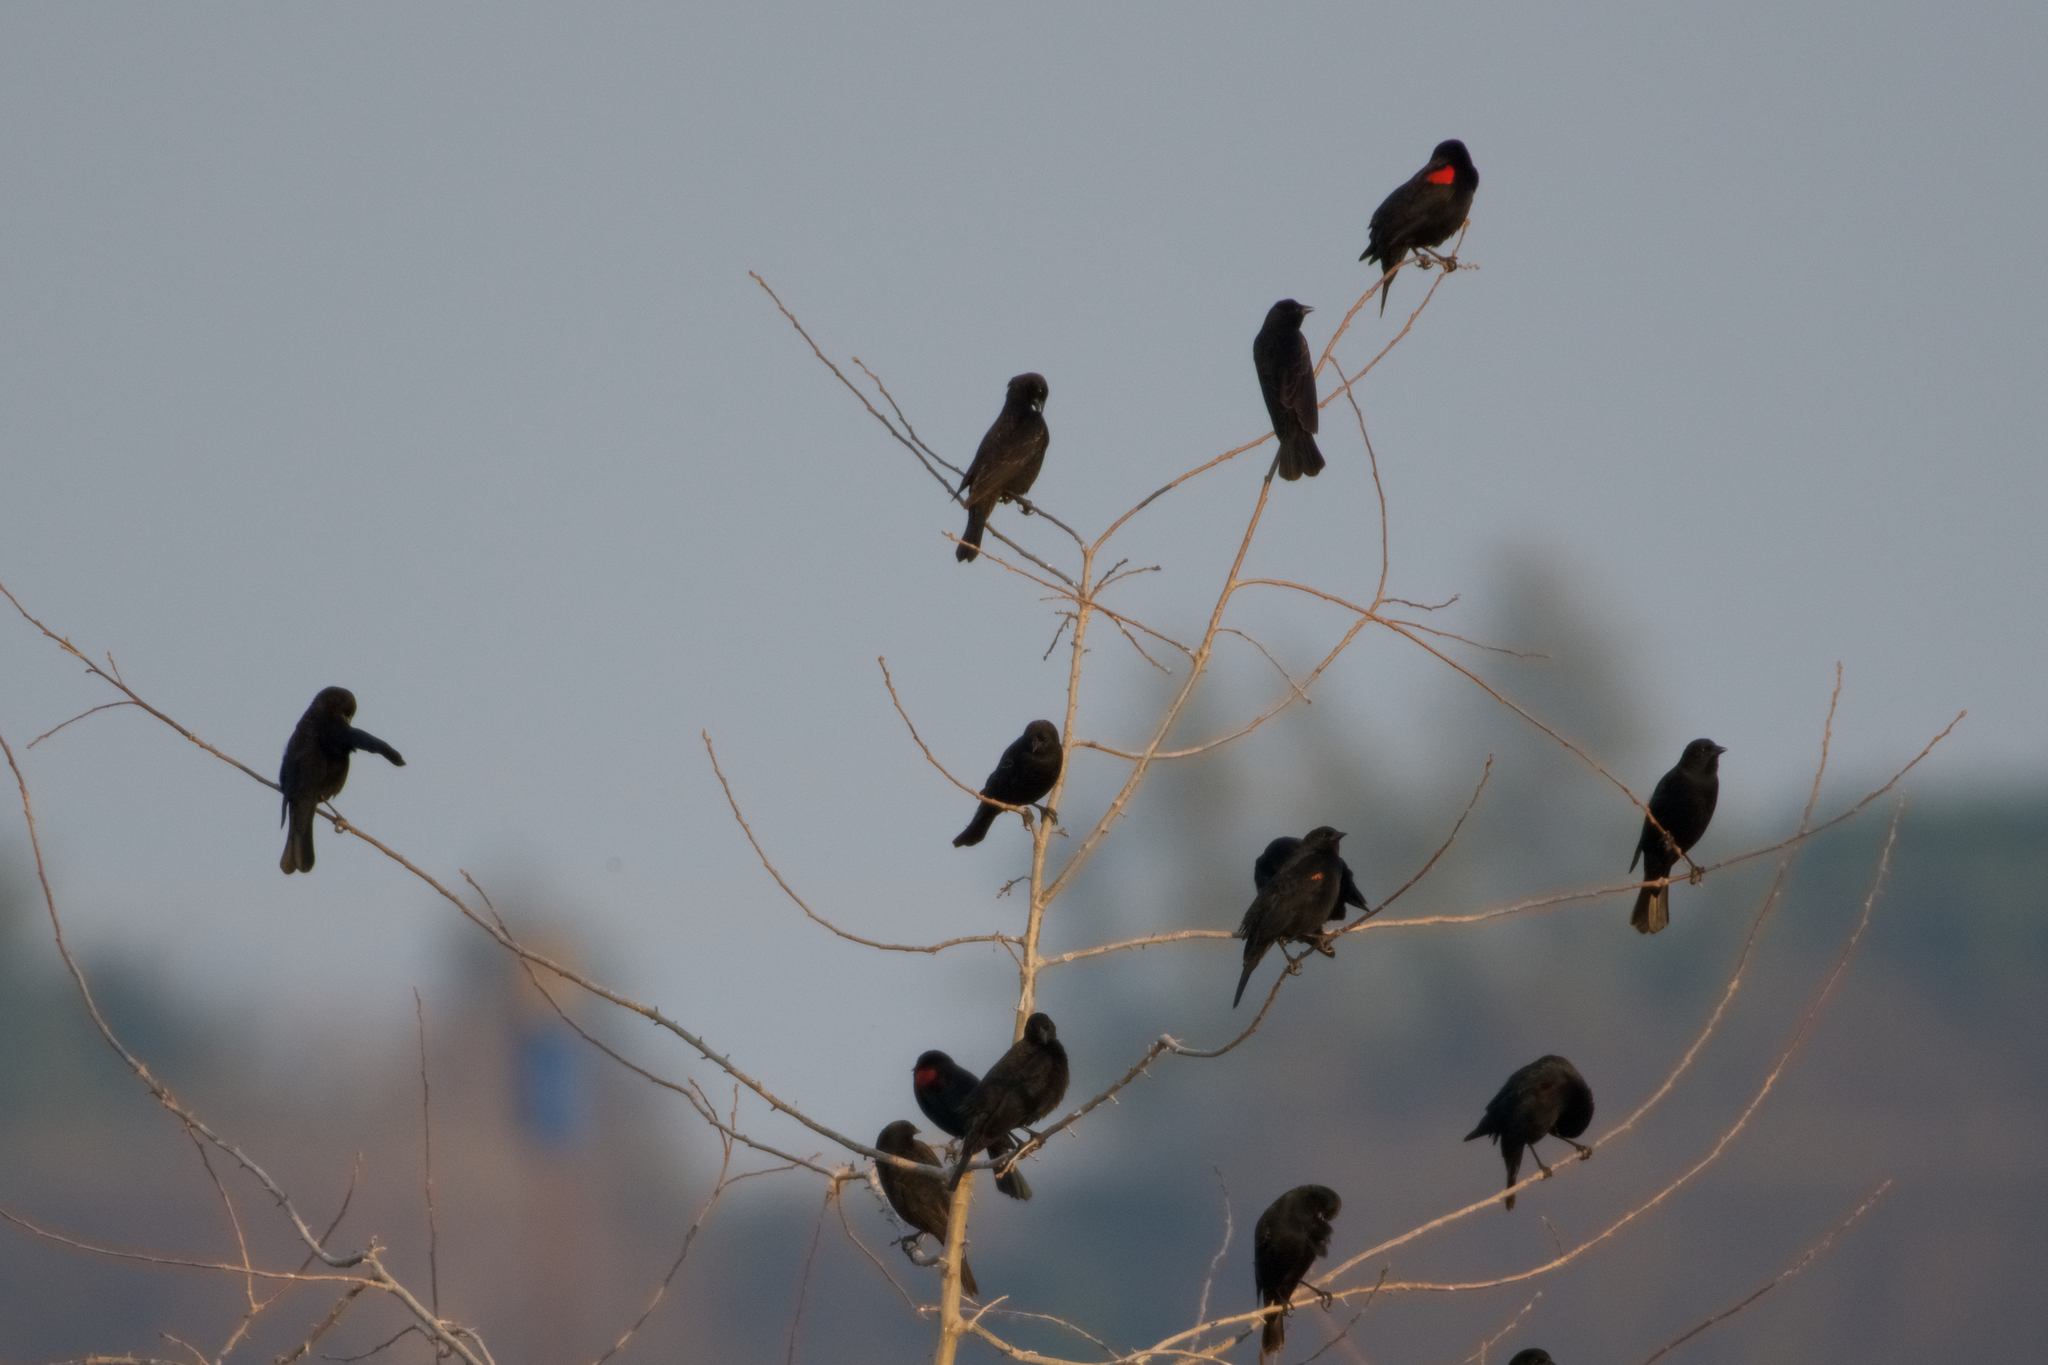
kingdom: Animalia
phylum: Chordata
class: Aves
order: Passeriformes
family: Icteridae
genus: Agelaius
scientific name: Agelaius phoeniceus
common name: Red-winged blackbird
